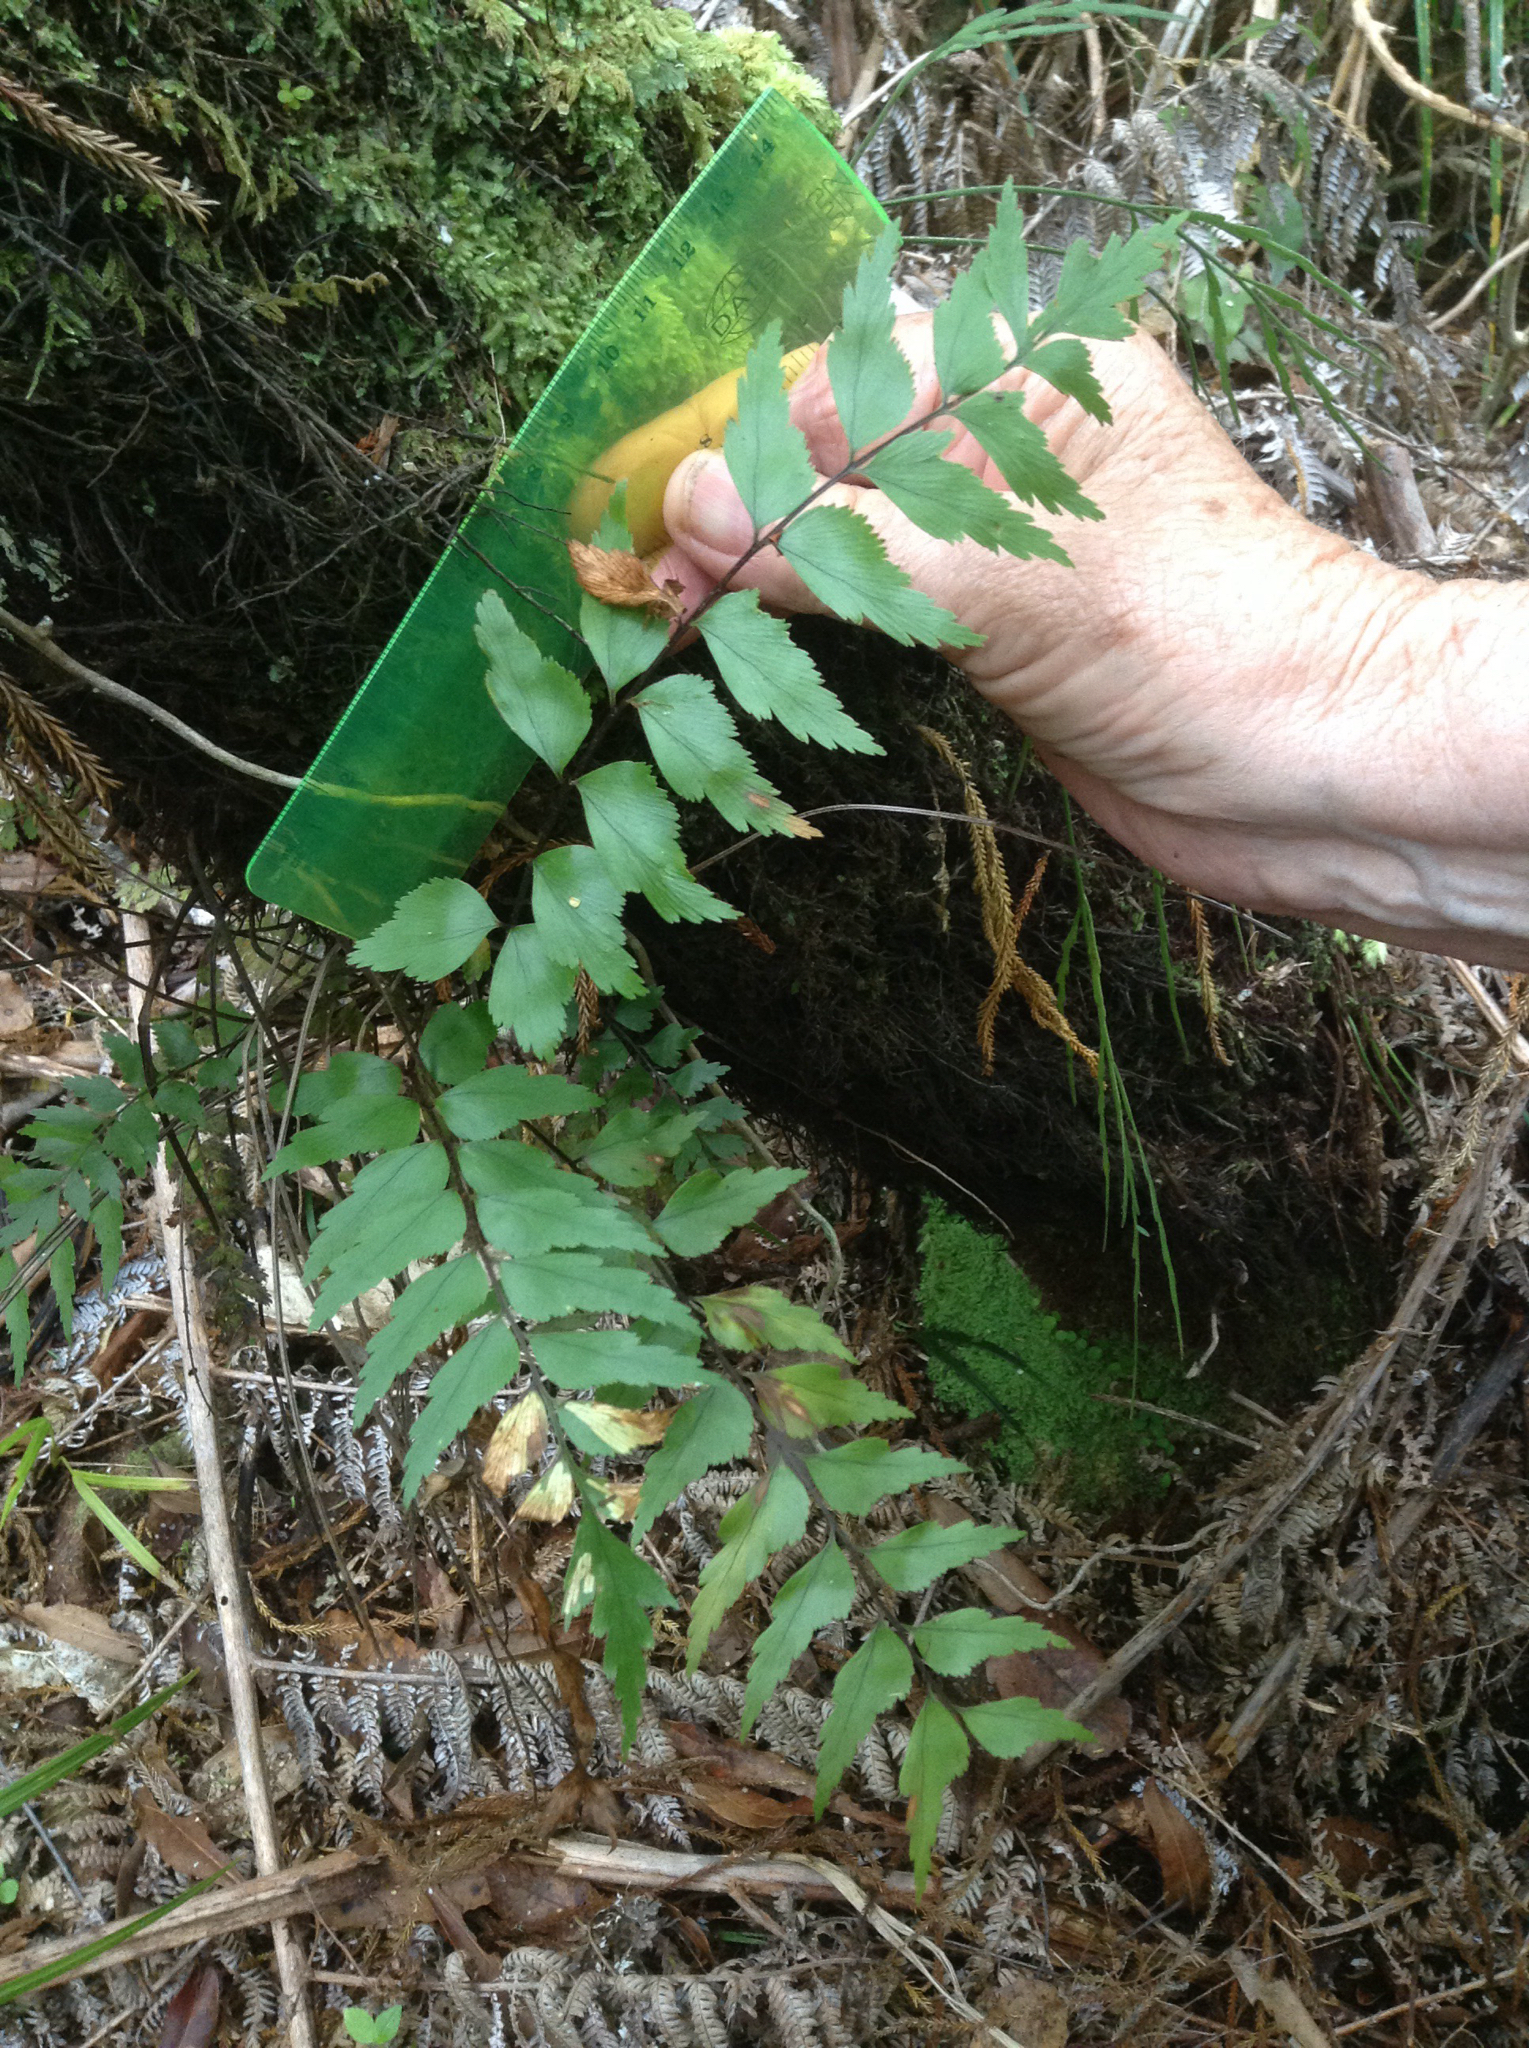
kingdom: Plantae
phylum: Tracheophyta
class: Polypodiopsida
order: Polypodiales
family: Aspleniaceae
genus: Asplenium
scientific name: Asplenium polyodon
